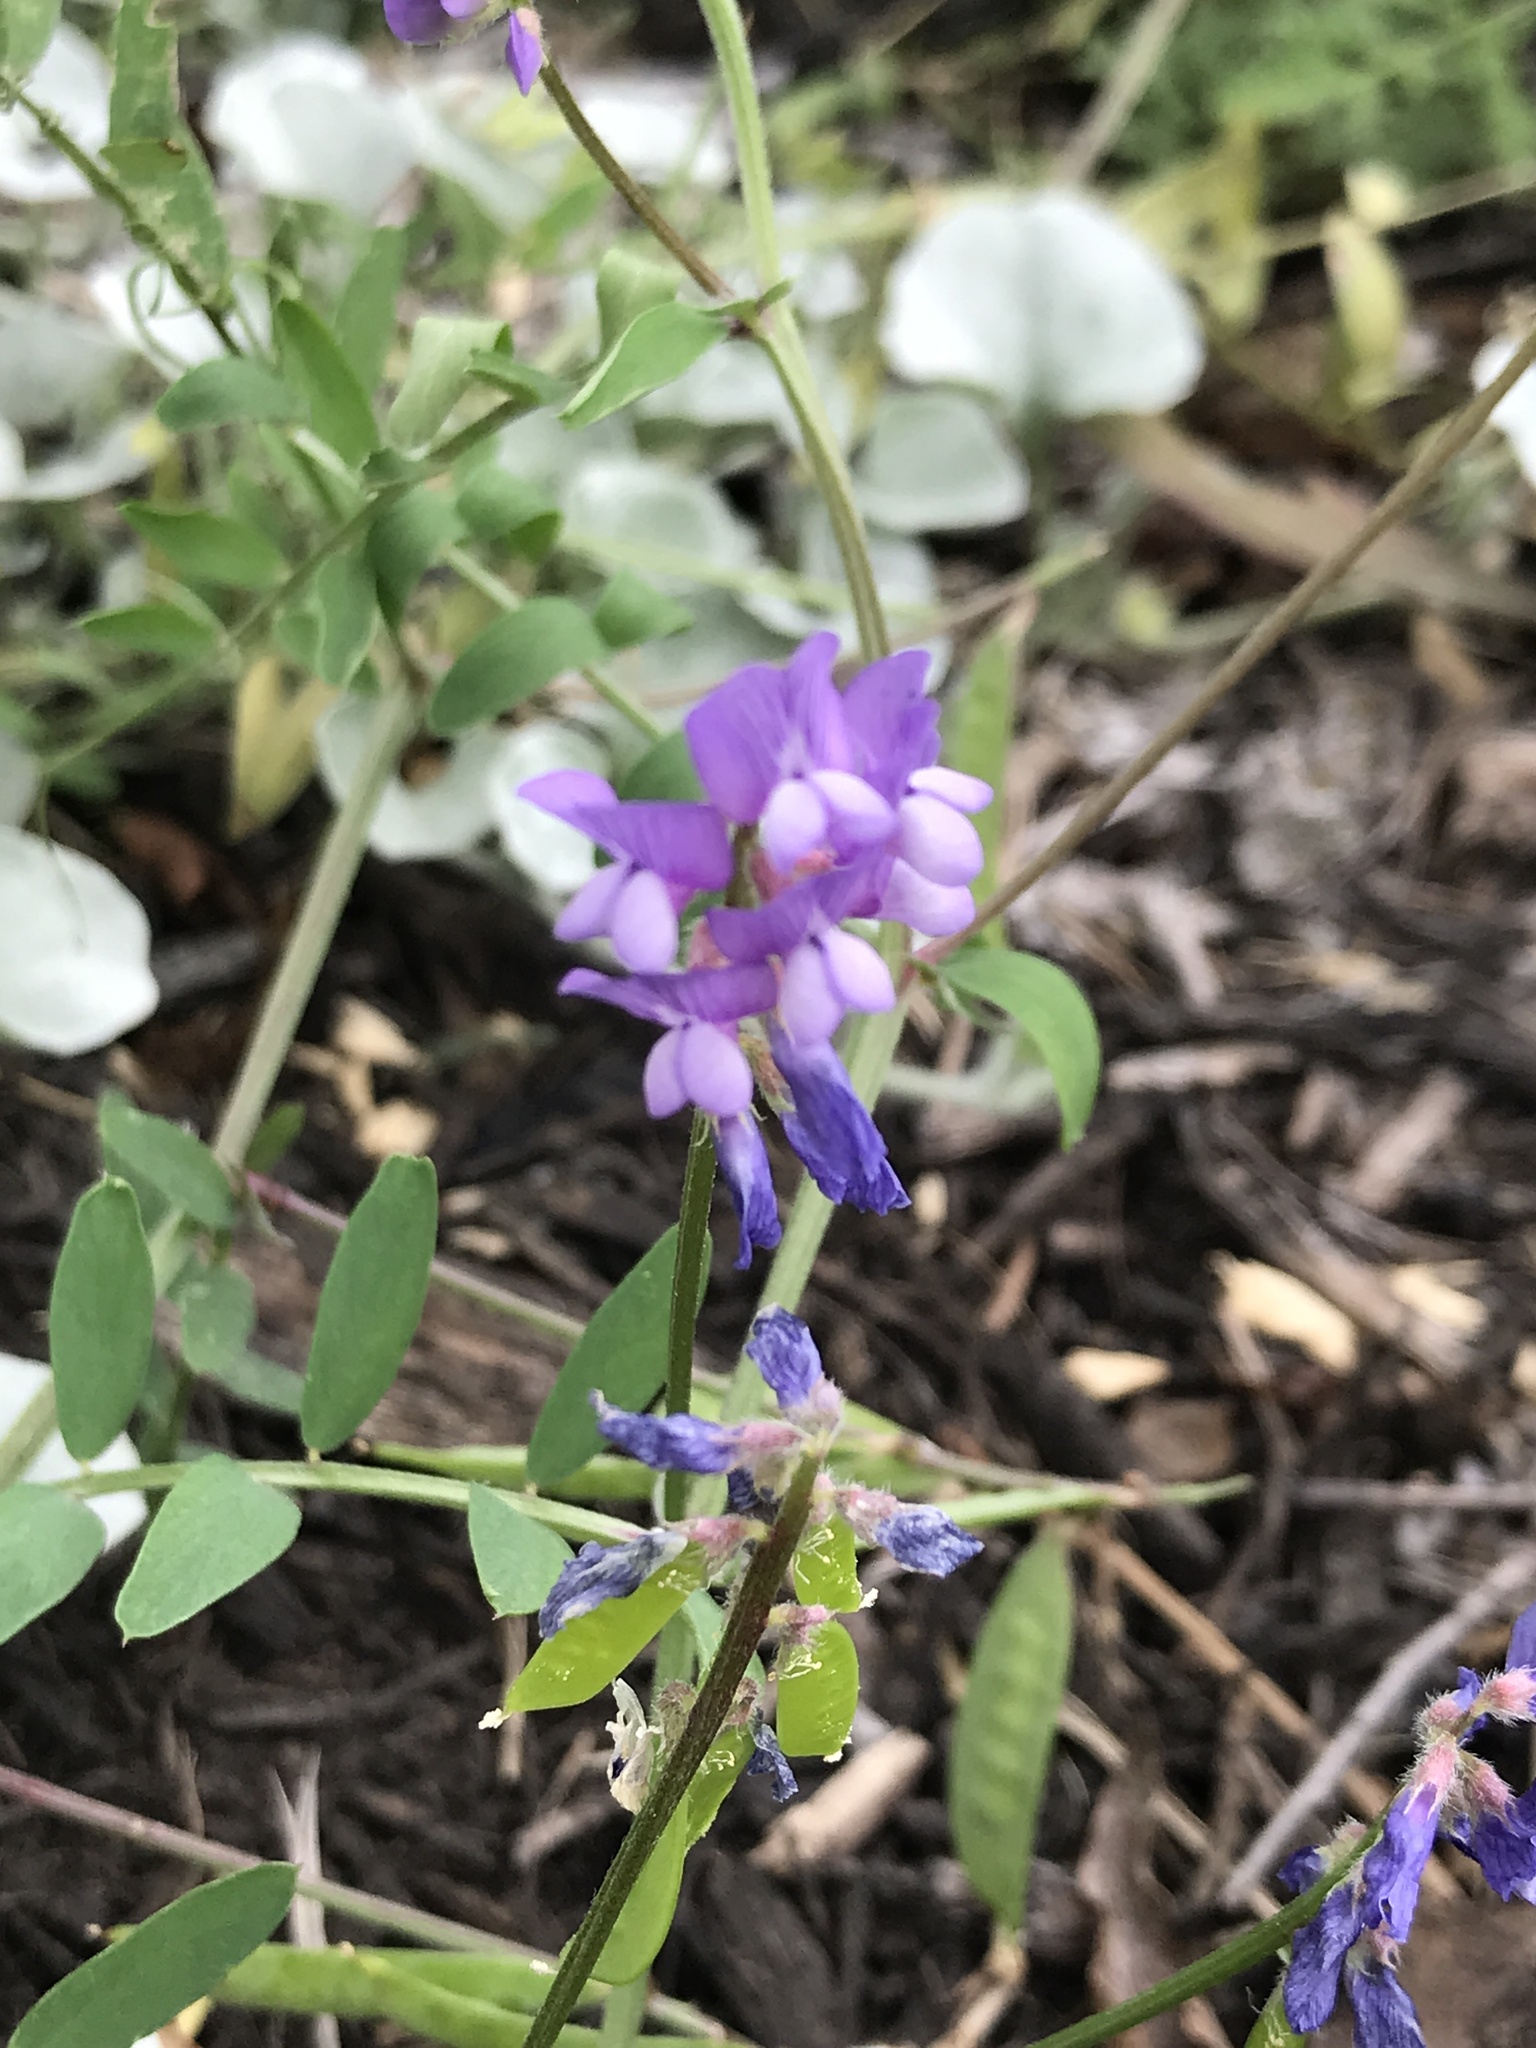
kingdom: Plantae
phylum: Tracheophyta
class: Magnoliopsida
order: Fabales
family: Fabaceae
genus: Vicia
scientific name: Vicia ludoviciana
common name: Louisiana vetch
